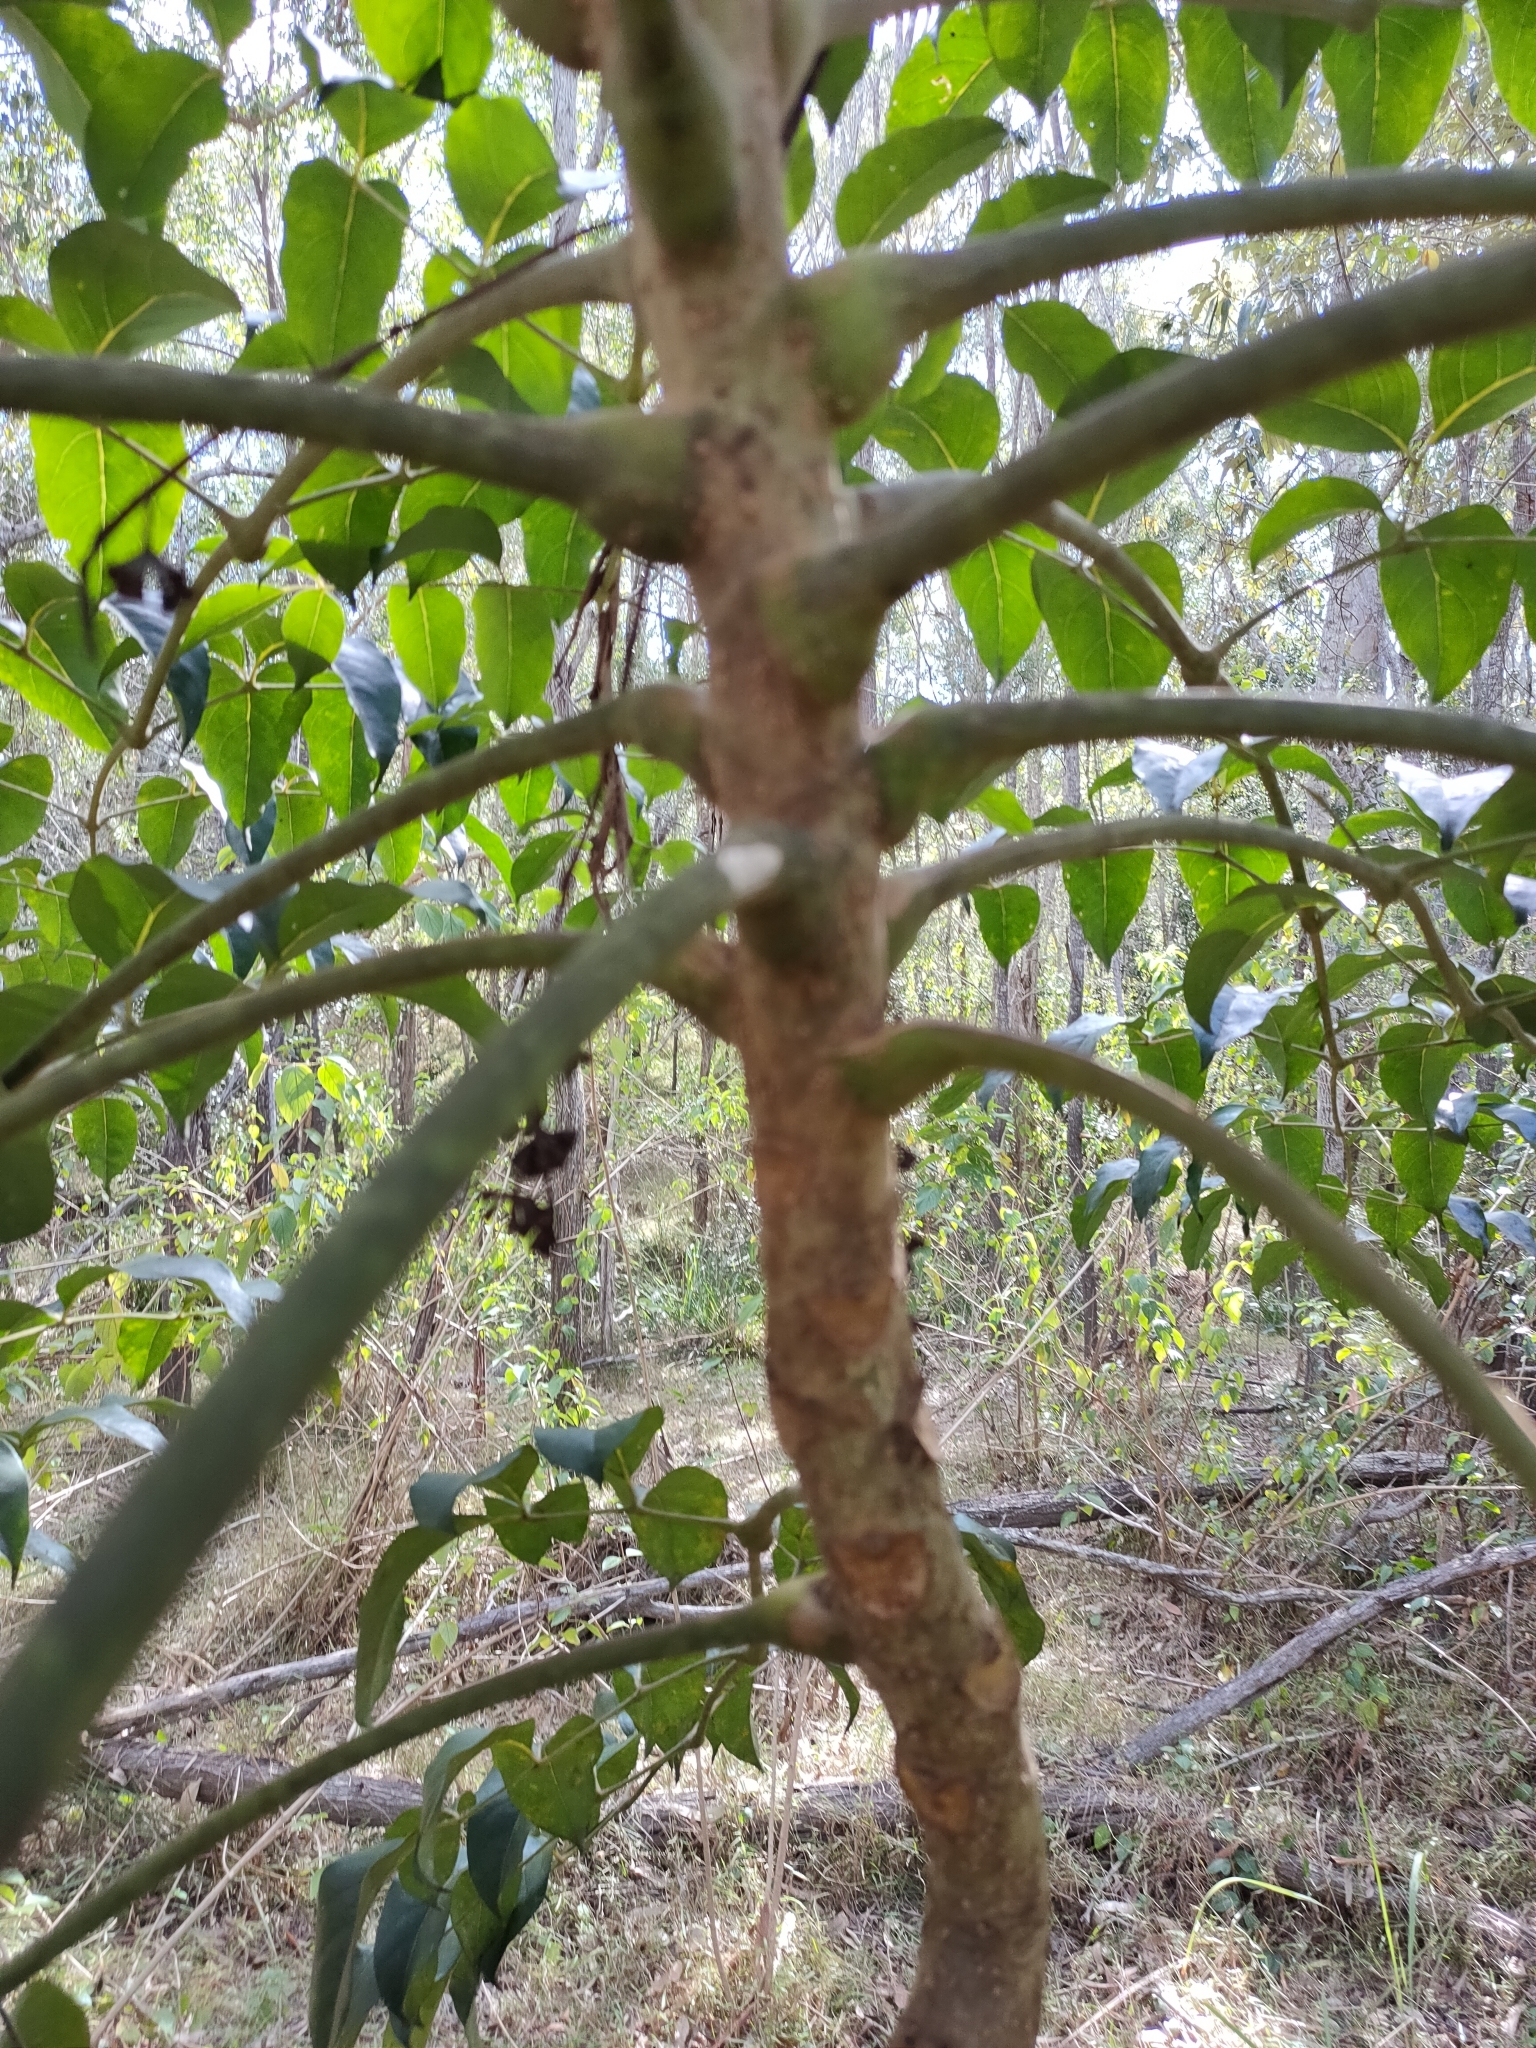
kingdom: Plantae
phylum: Tracheophyta
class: Magnoliopsida
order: Apiales
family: Araliaceae
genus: Polyscias
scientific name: Polyscias elegans
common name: Mowbulan whitewood
